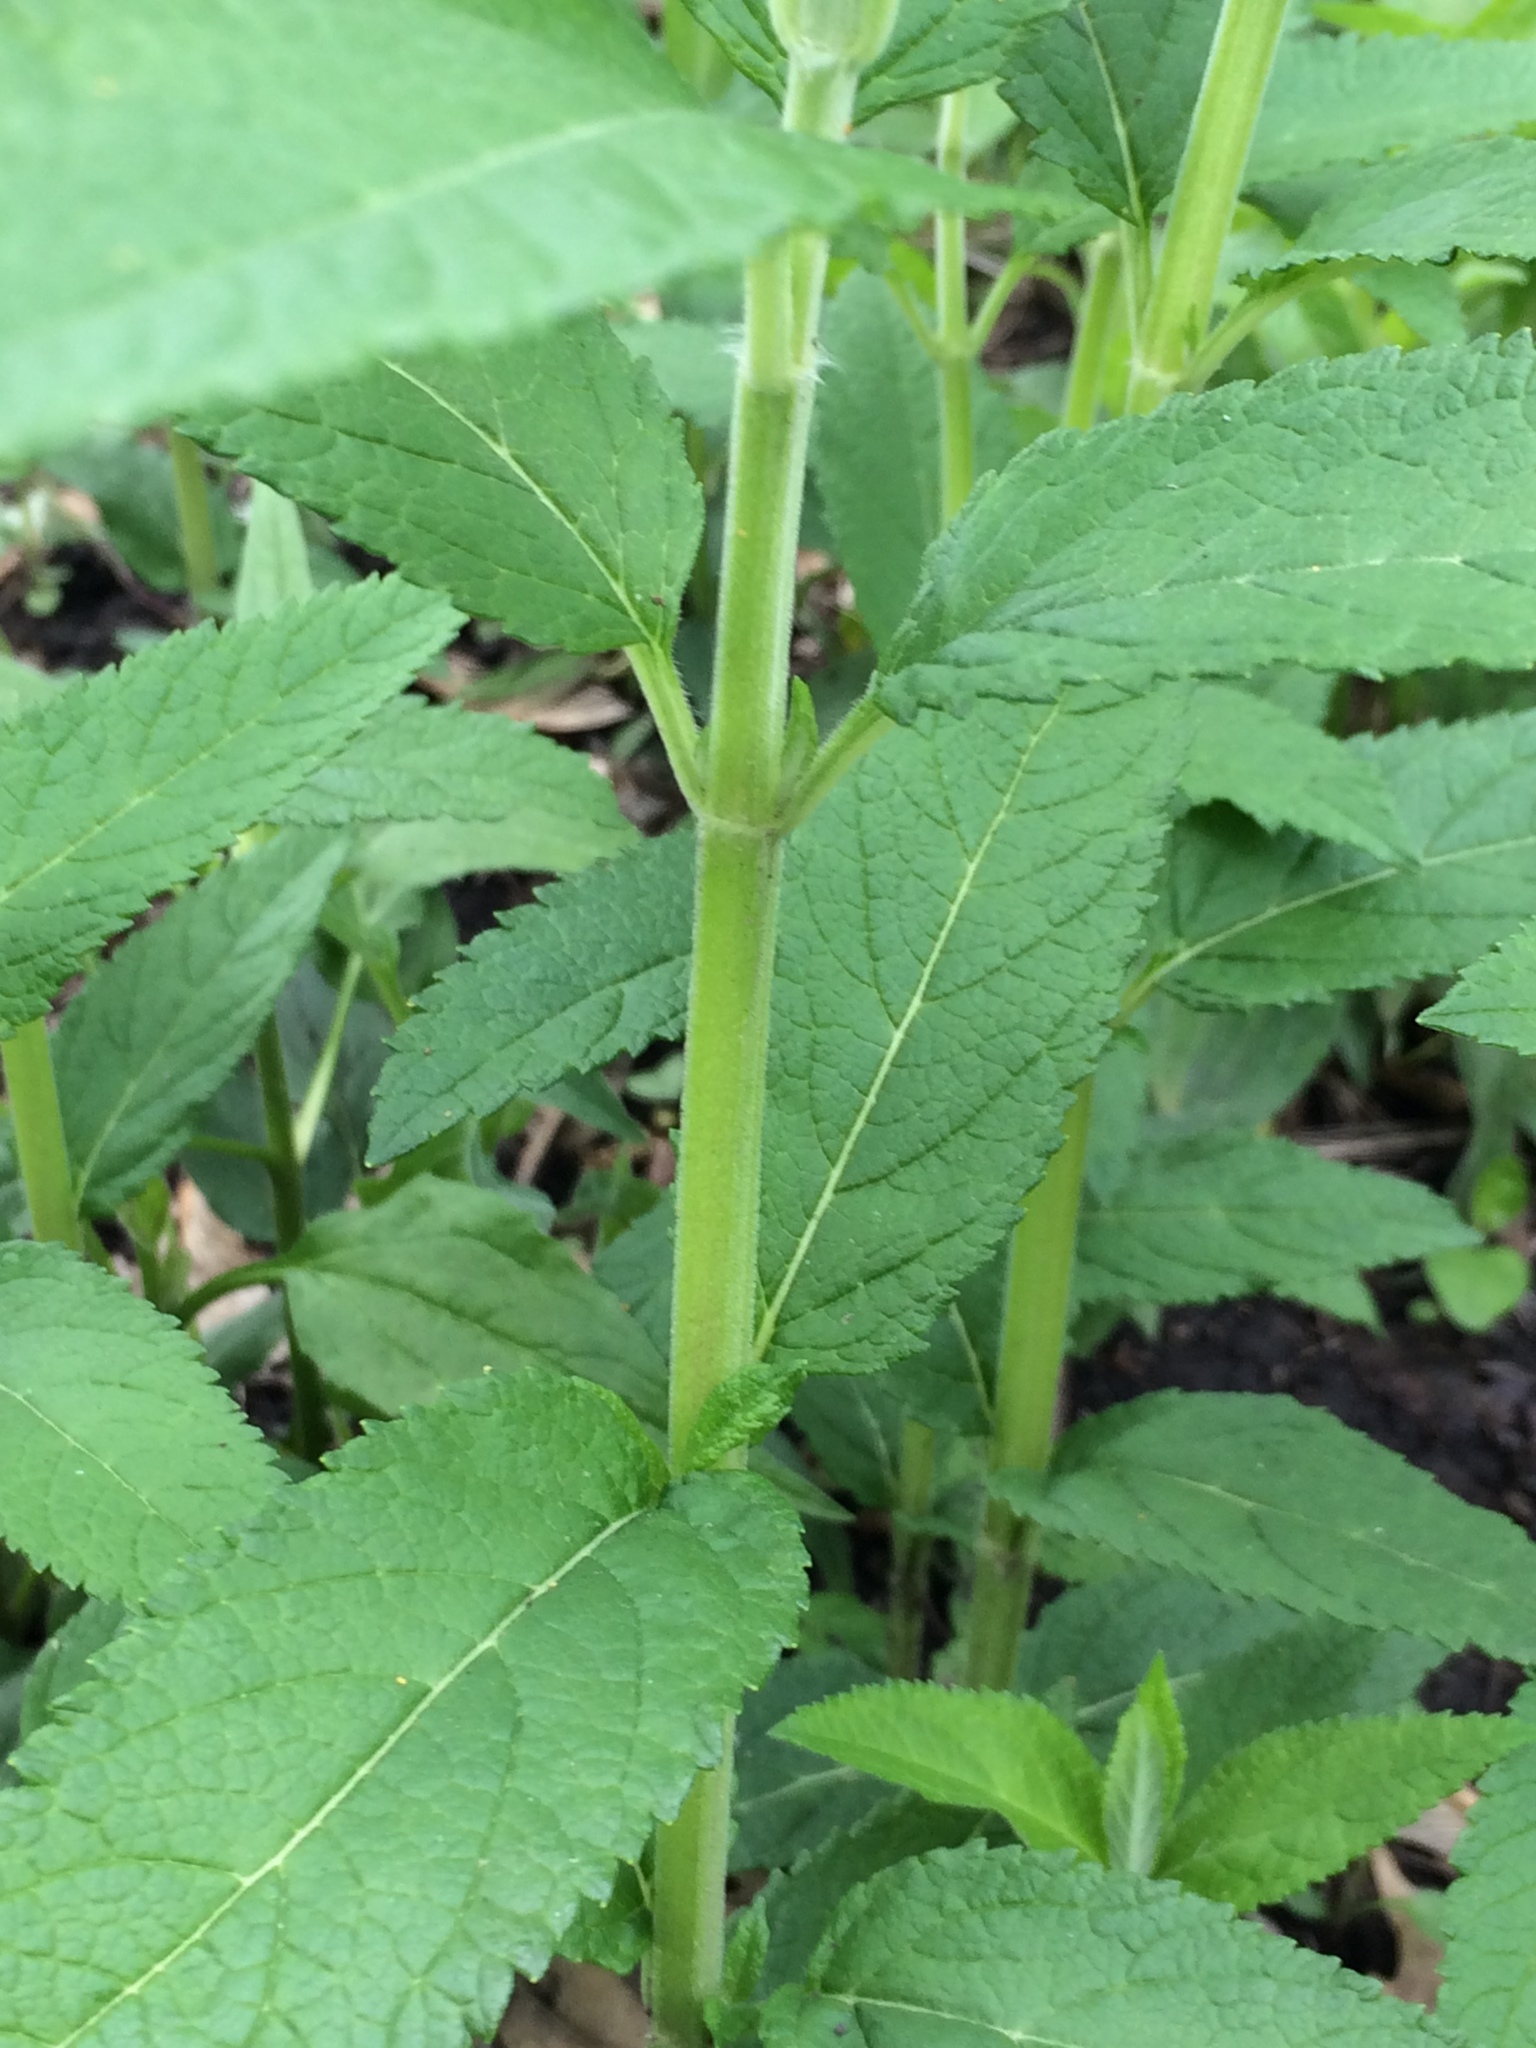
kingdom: Plantae
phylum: Tracheophyta
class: Magnoliopsida
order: Lamiales
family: Lamiaceae
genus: Teucrium
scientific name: Teucrium canadense
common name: American germander
